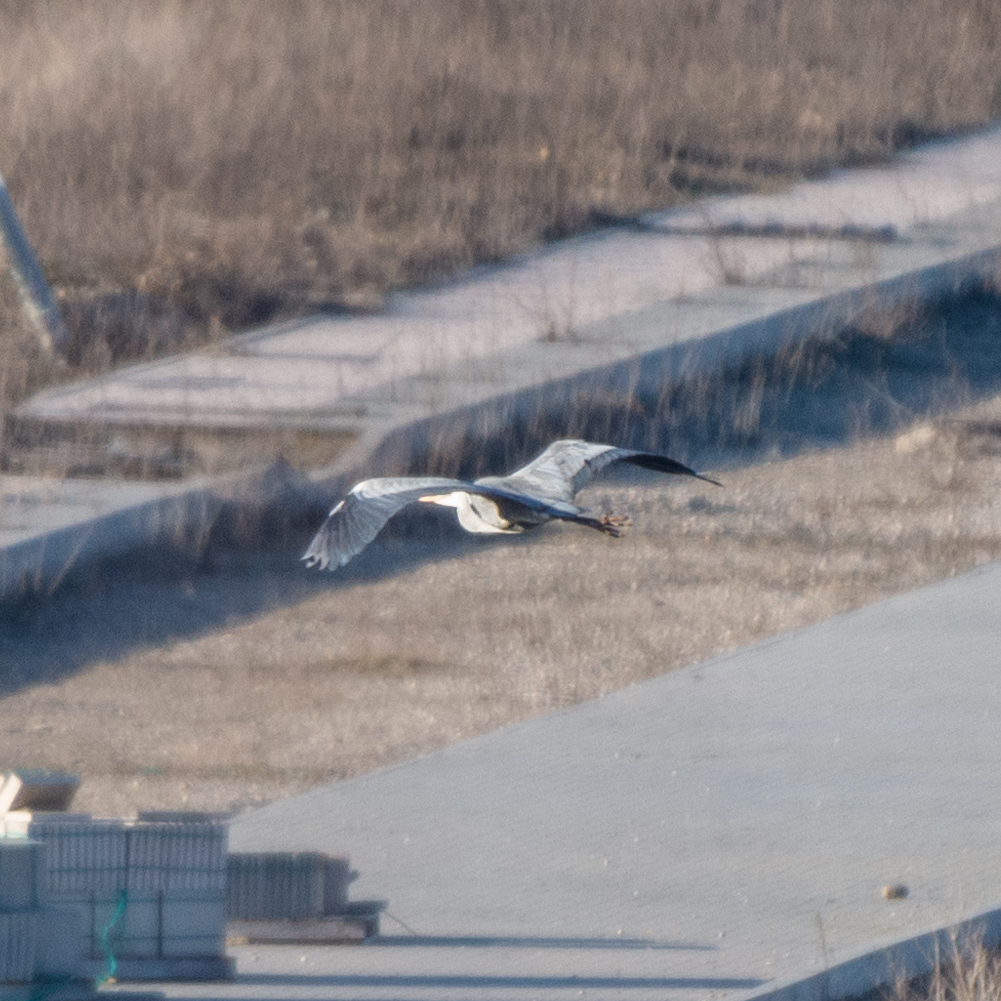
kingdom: Animalia
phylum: Chordata
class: Aves
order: Pelecaniformes
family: Ardeidae
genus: Ardea
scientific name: Ardea cinerea
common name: Grey heron
